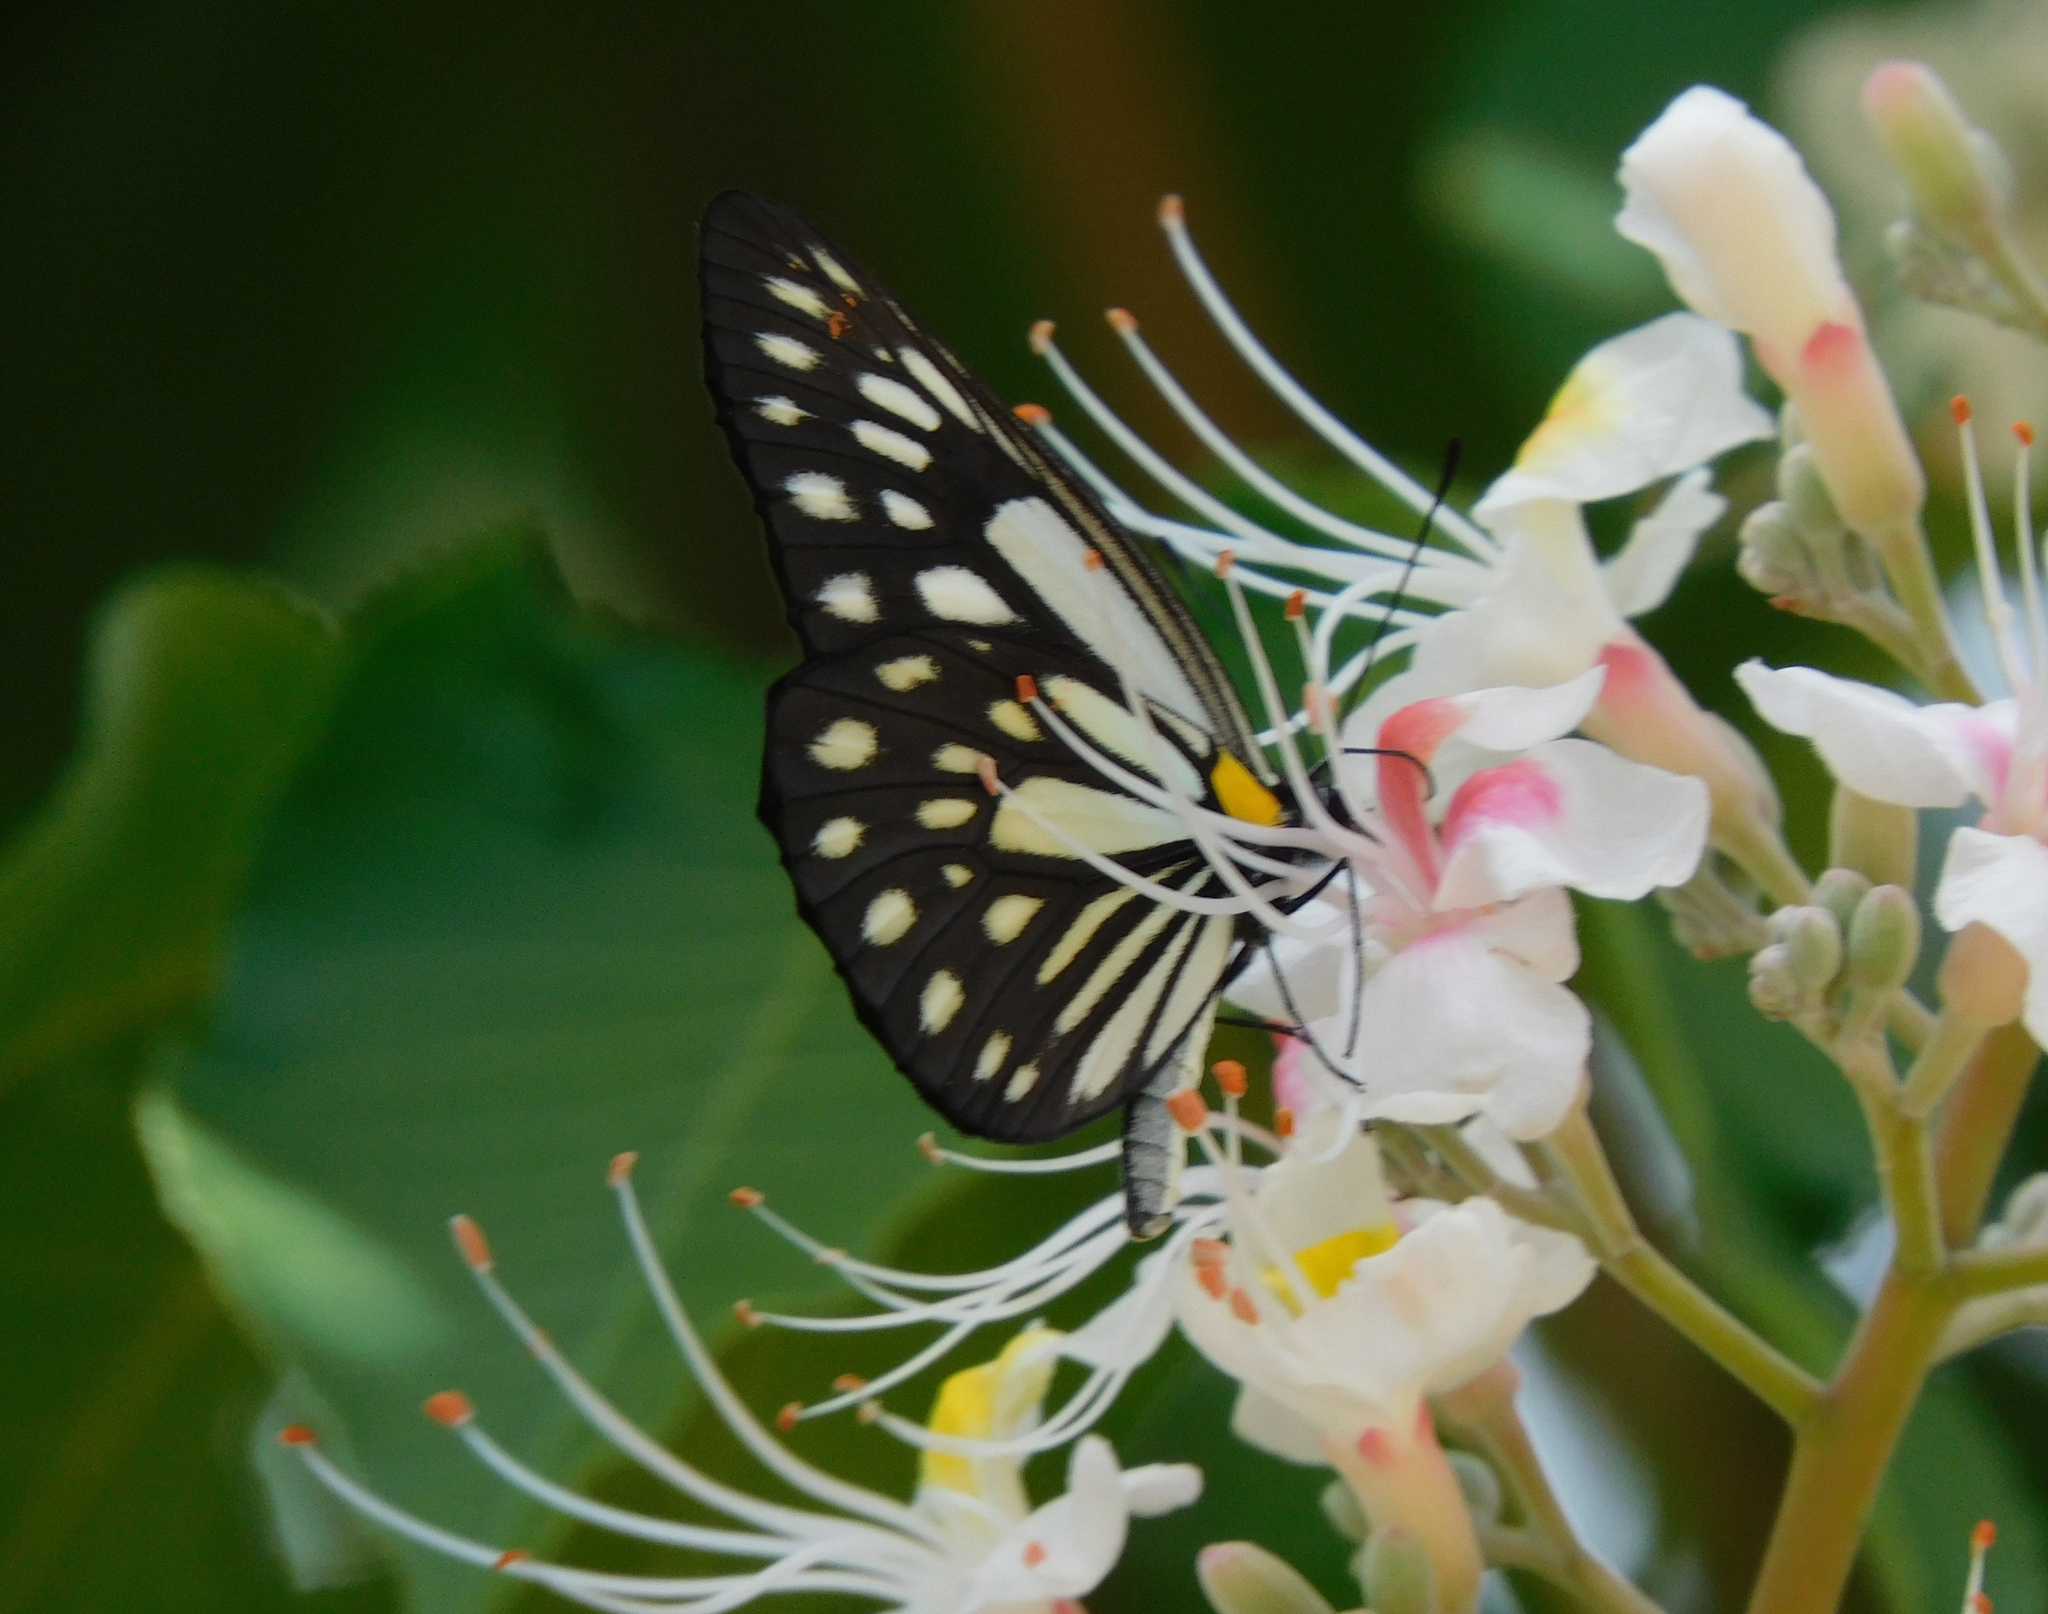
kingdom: Animalia
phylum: Arthropoda
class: Insecta
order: Lepidoptera
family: Pieridae
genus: Aporia
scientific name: Aporia agathon
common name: Great blackvein
